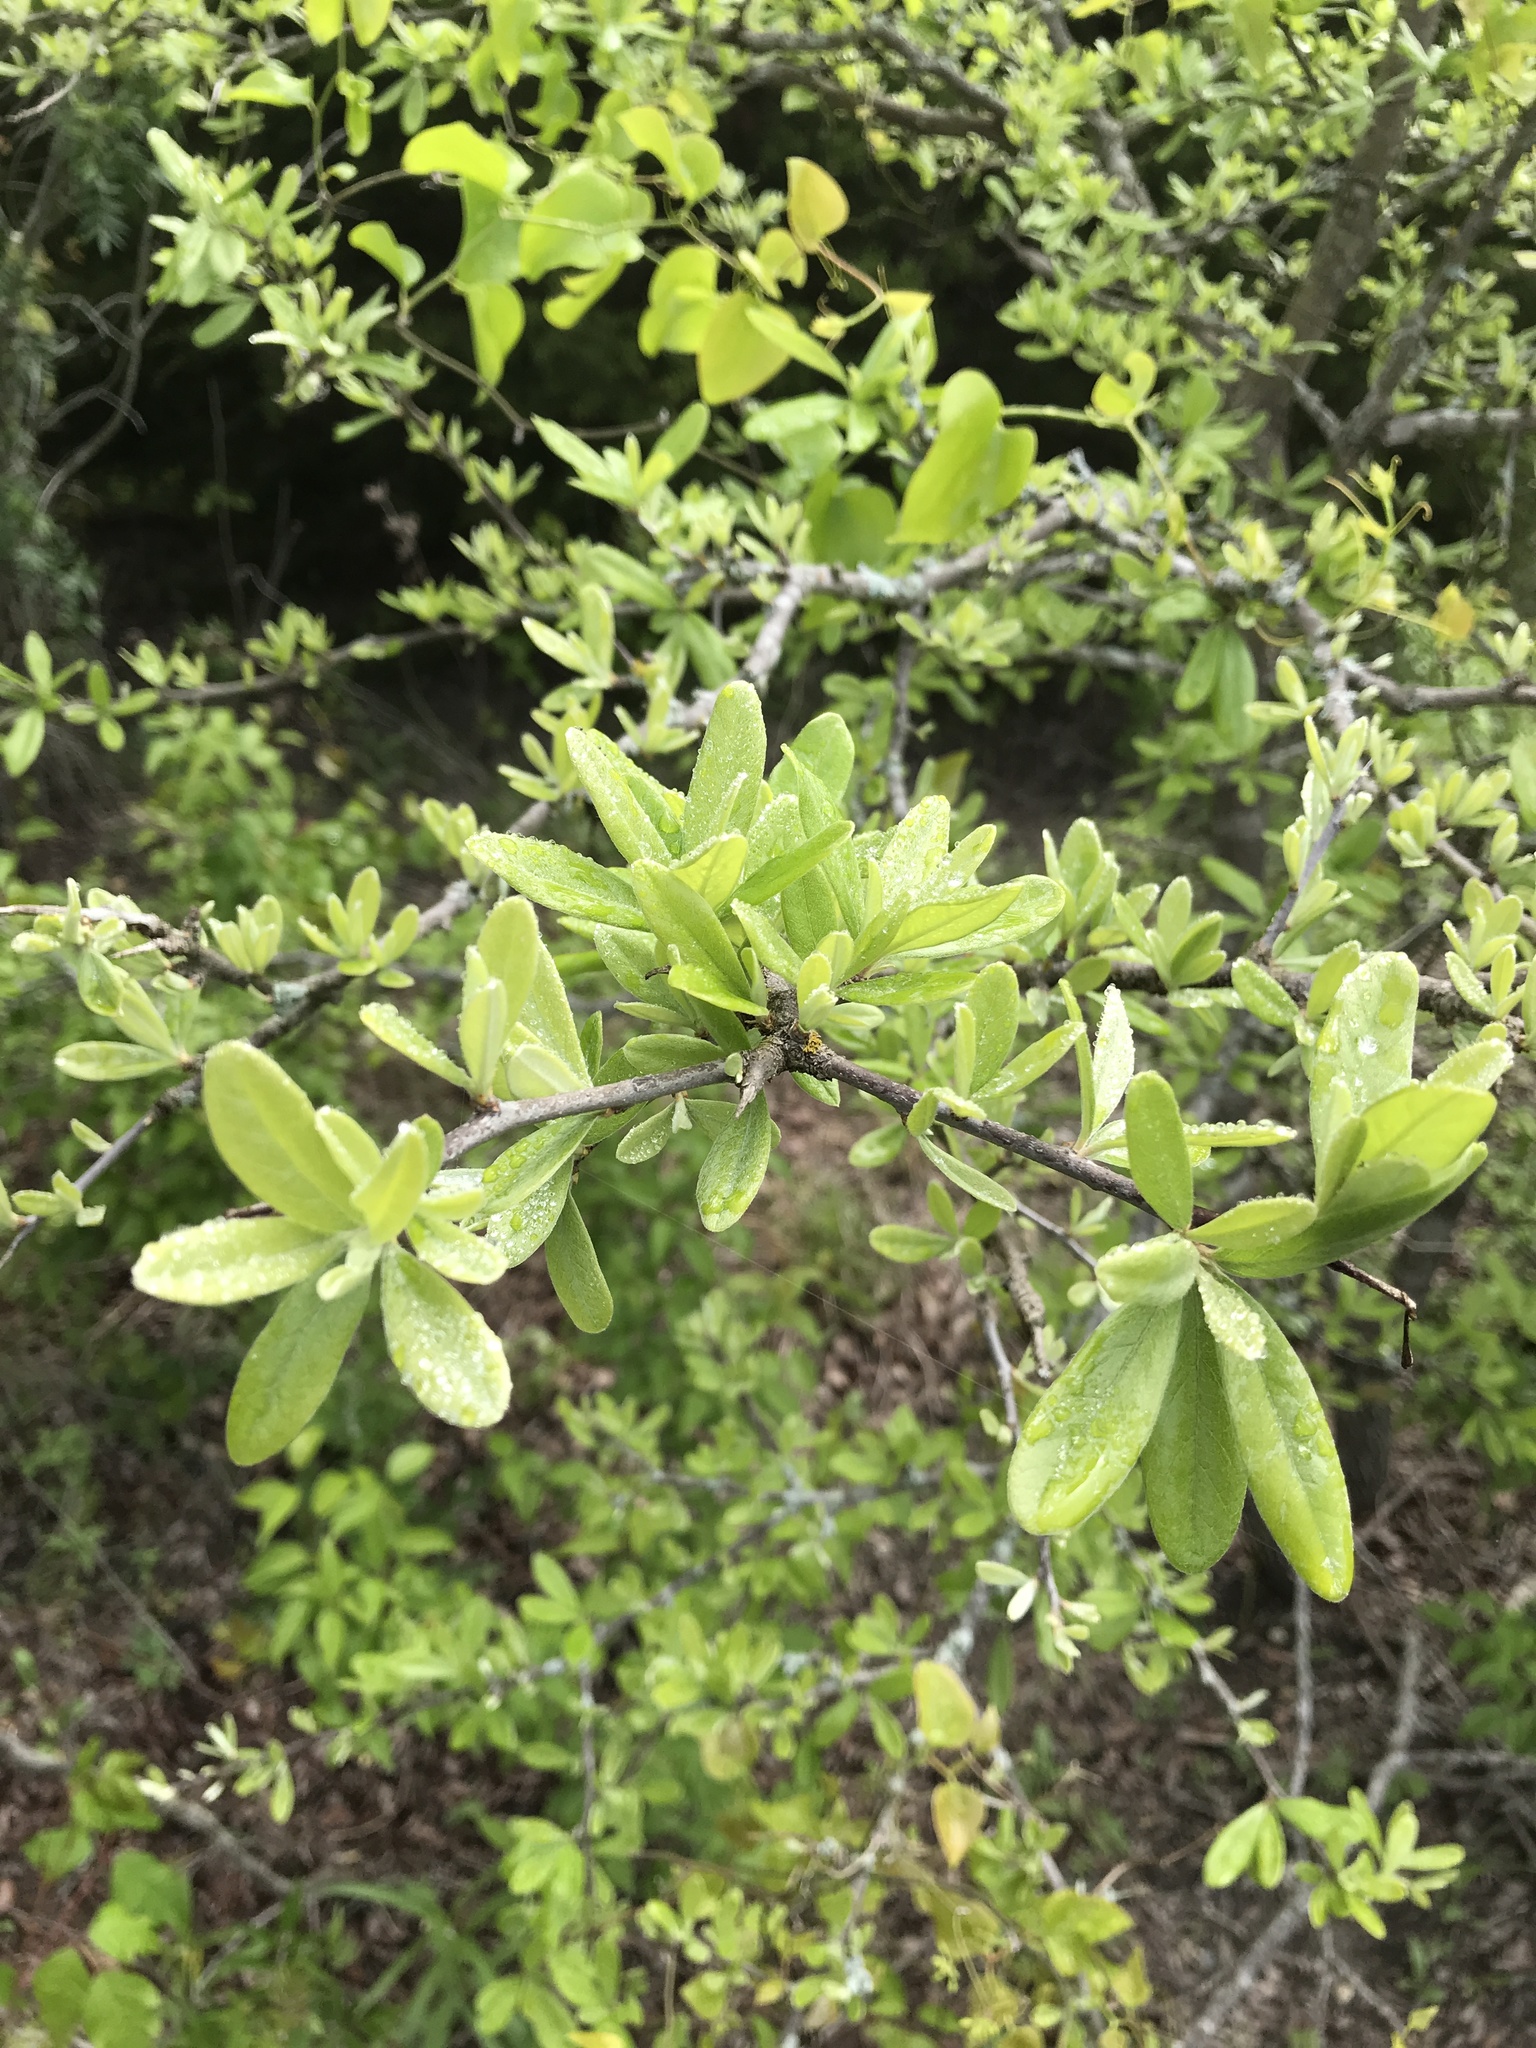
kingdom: Plantae
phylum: Tracheophyta
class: Magnoliopsida
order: Ericales
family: Sapotaceae
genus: Sideroxylon
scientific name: Sideroxylon lanuginosum
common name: Chittamwood
